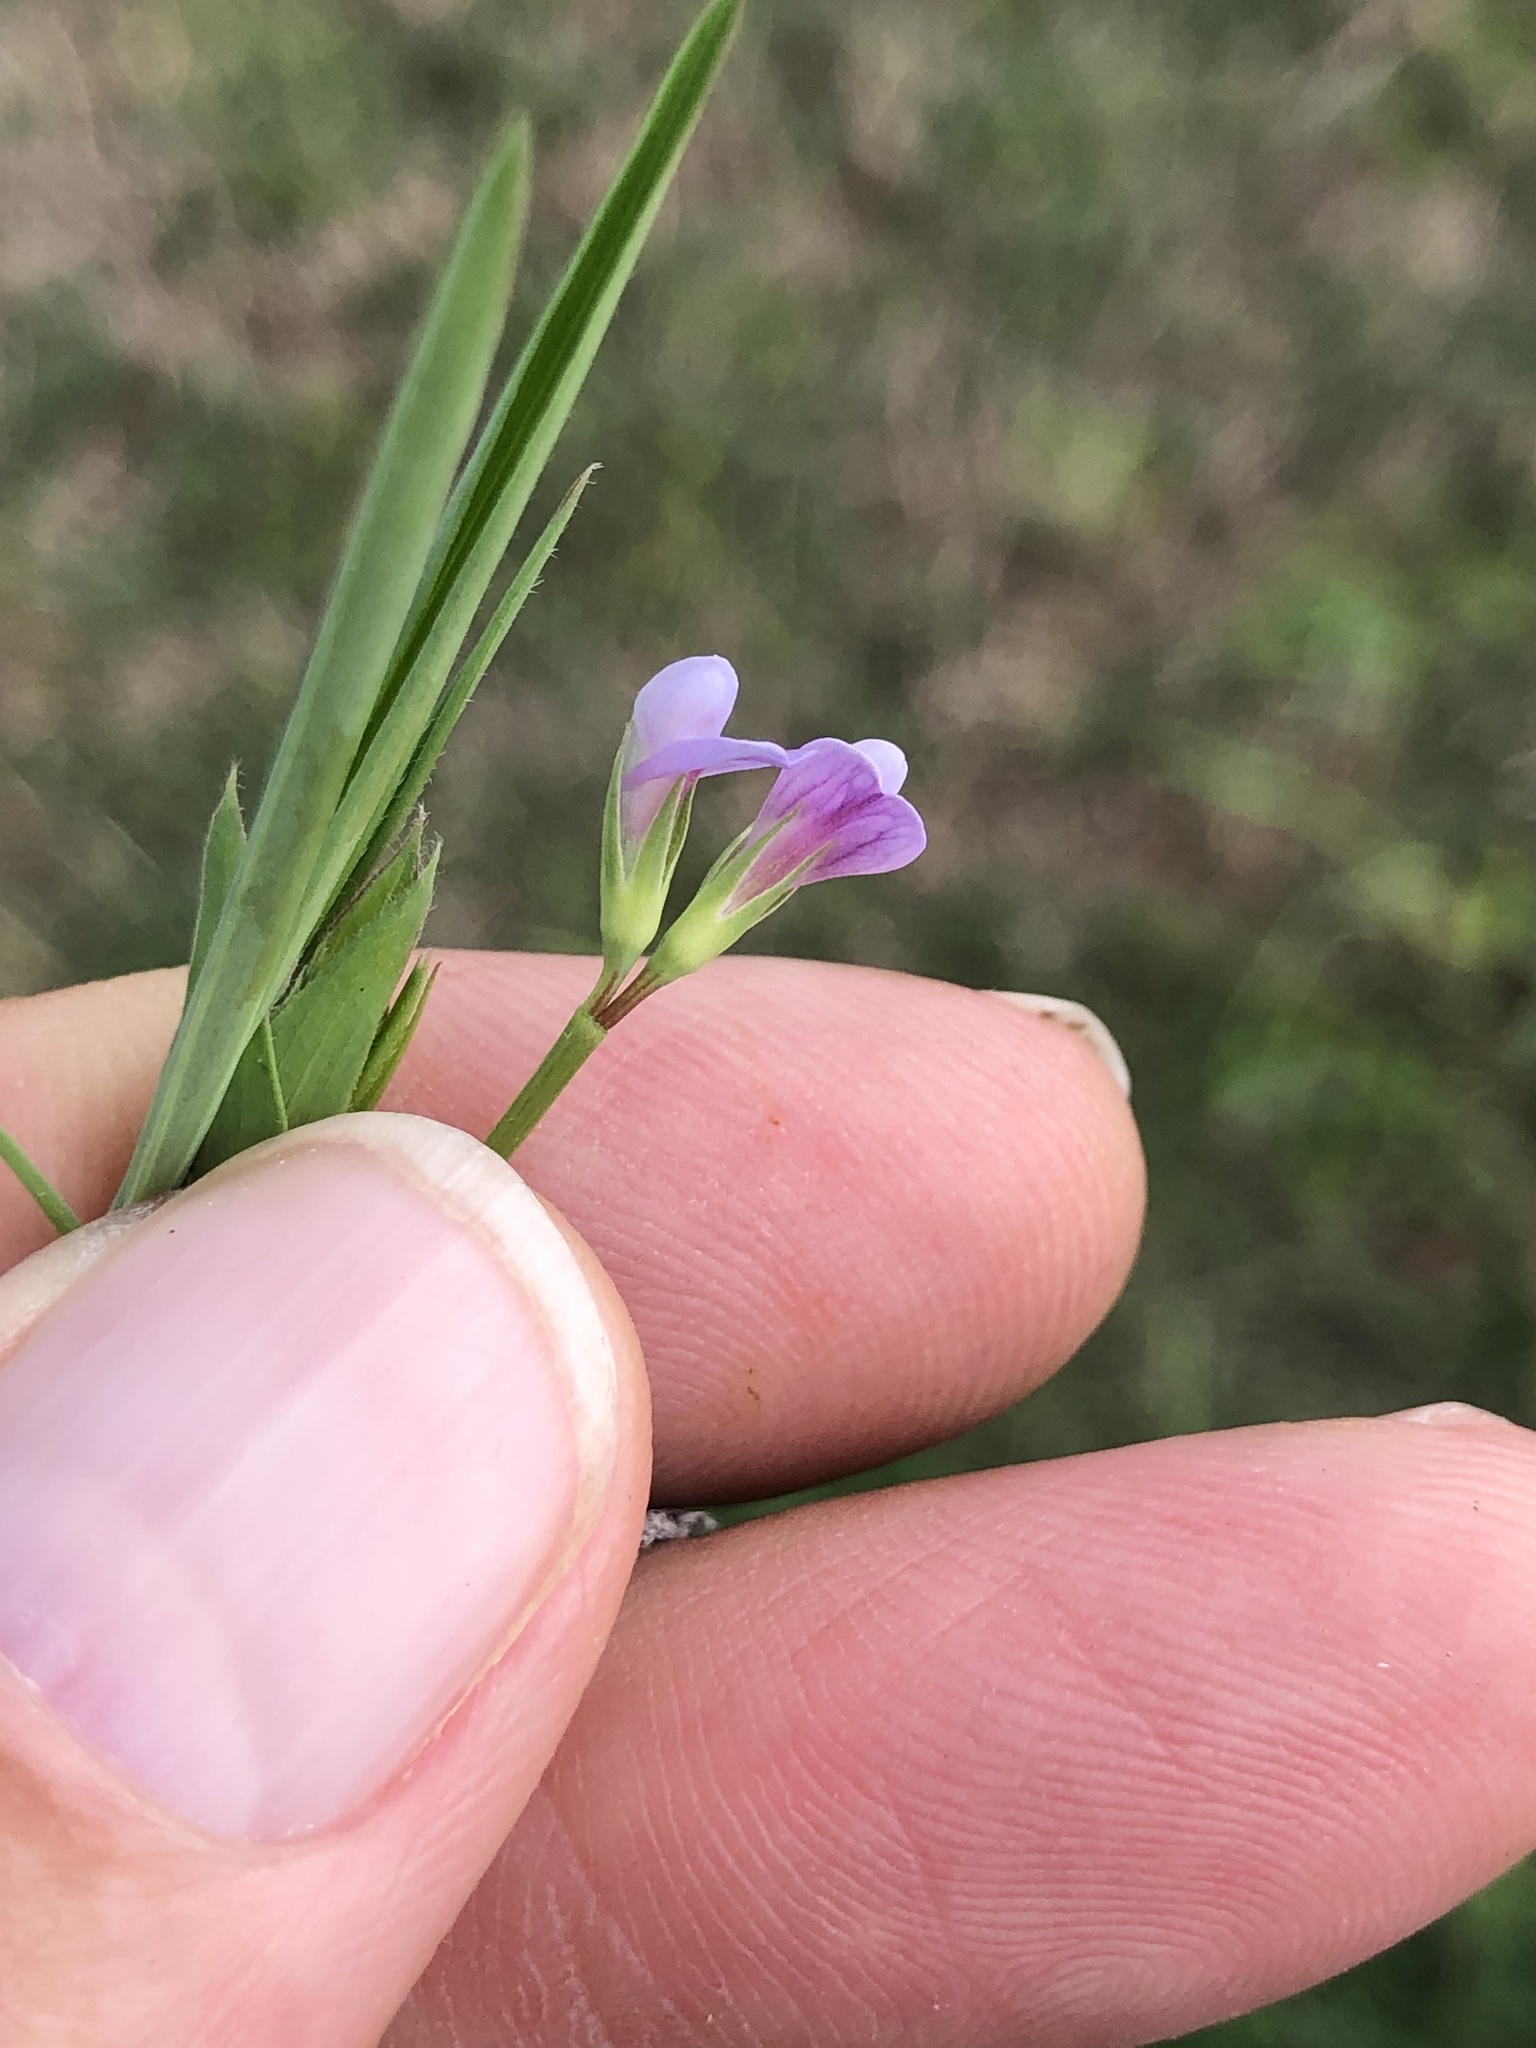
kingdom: Plantae
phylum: Tracheophyta
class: Magnoliopsida
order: Fabales
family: Fabaceae
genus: Lathyrus
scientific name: Lathyrus pusillus
